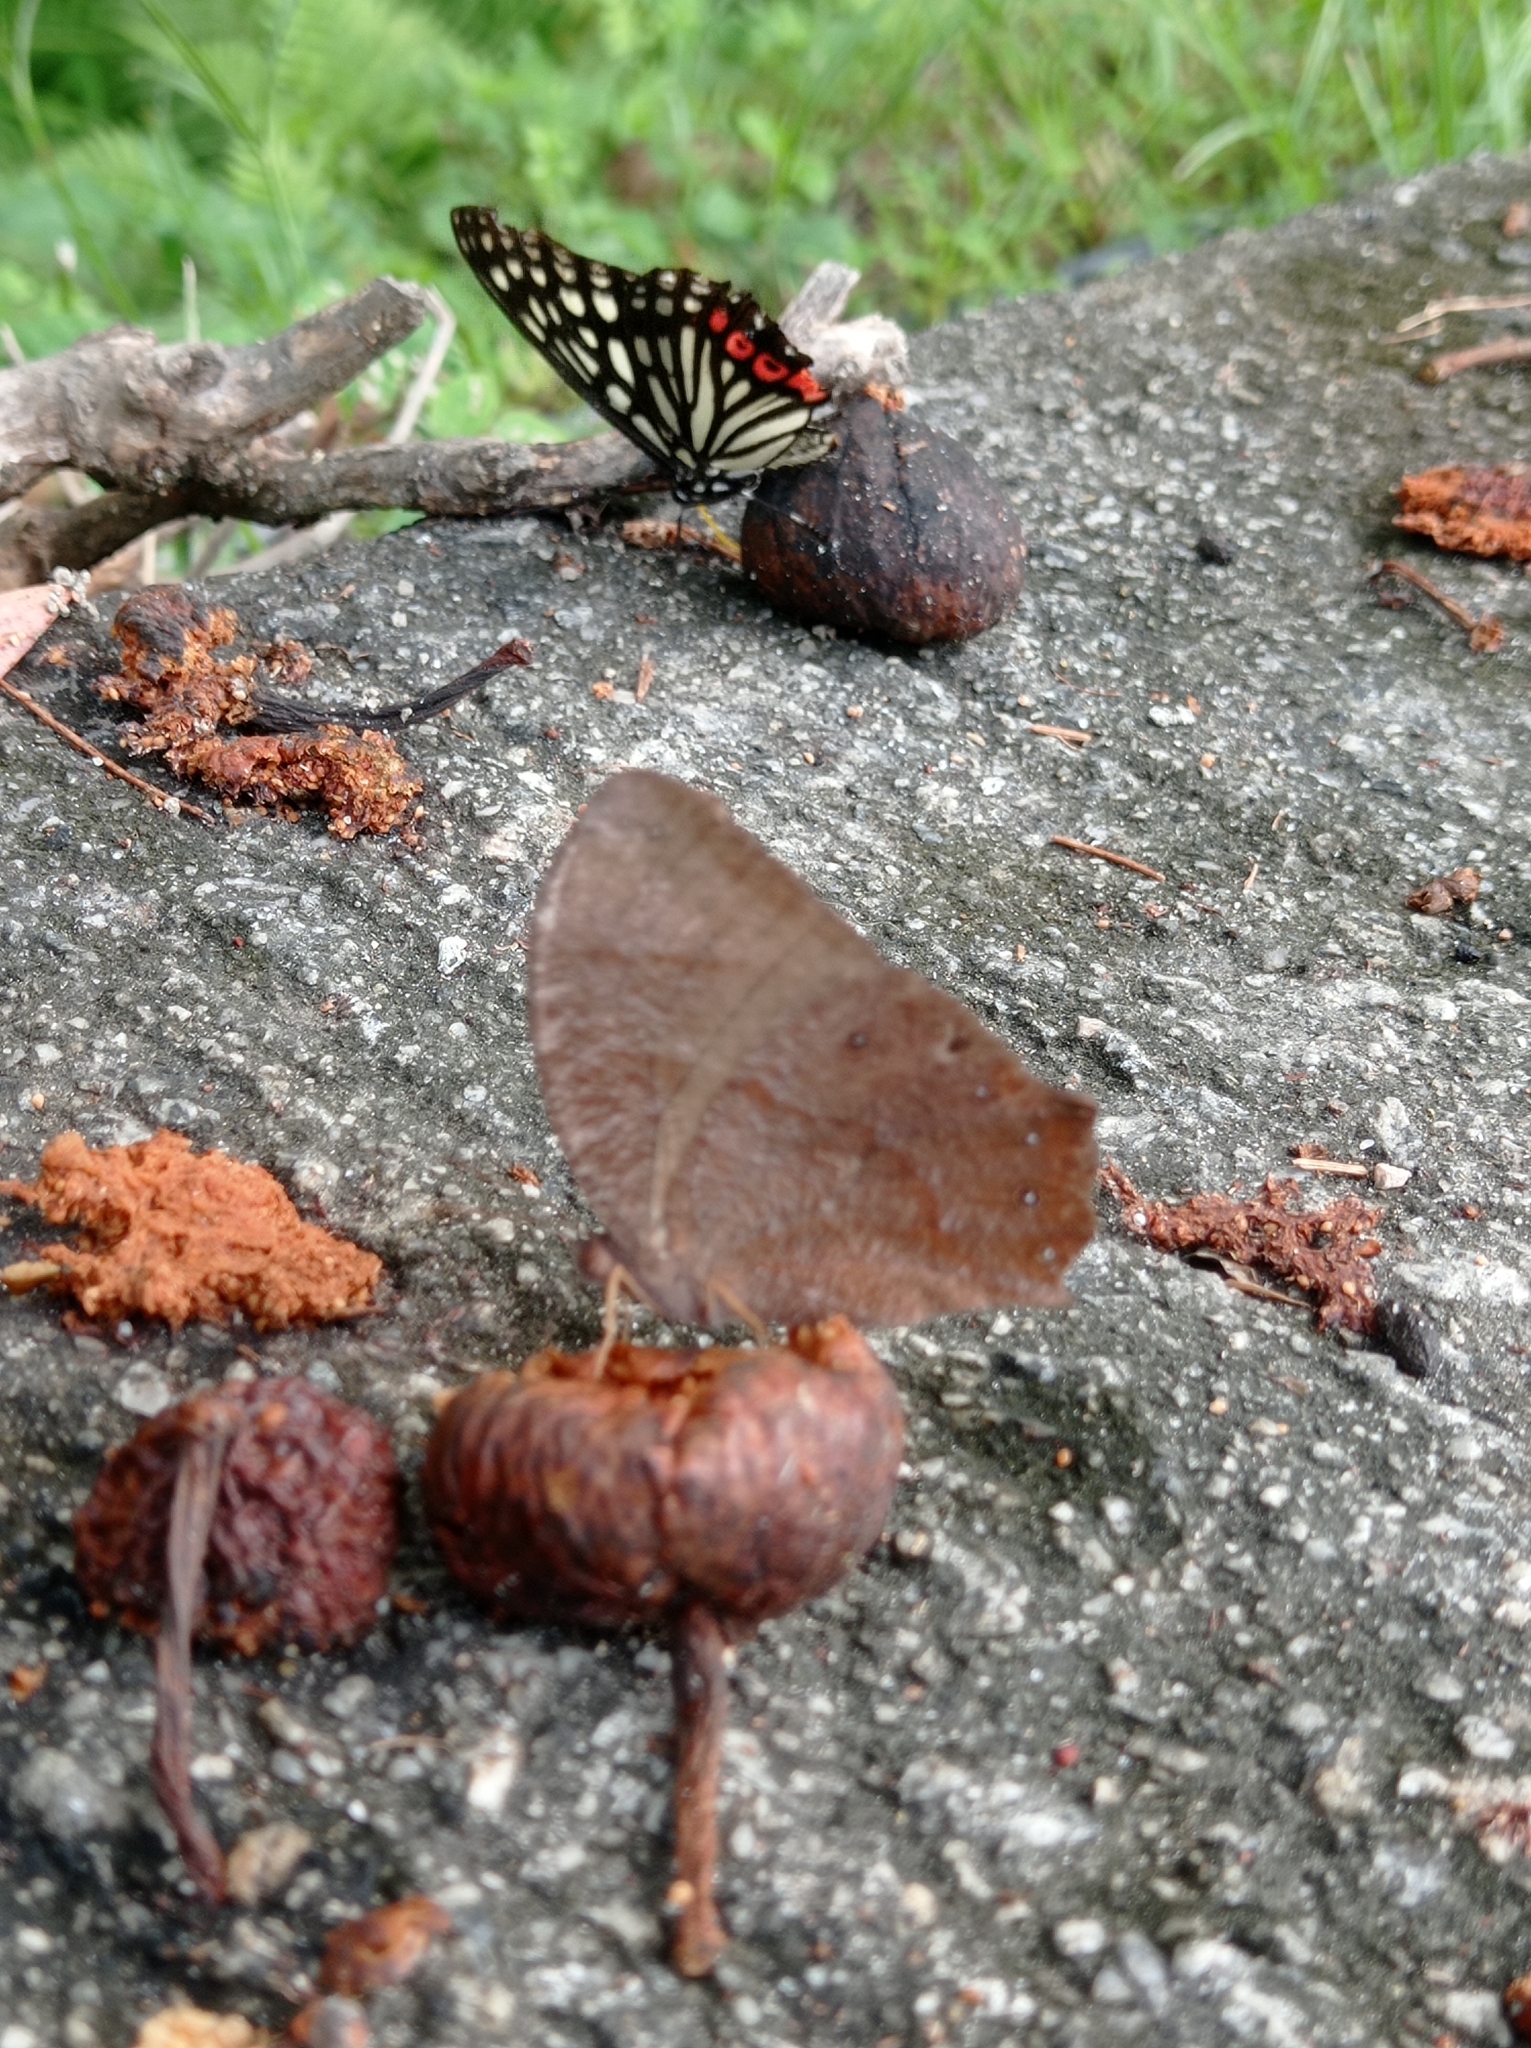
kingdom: Animalia
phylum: Arthropoda
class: Insecta
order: Lepidoptera
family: Nymphalidae
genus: Melanitis
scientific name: Melanitis phedima
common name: Dark evening brown
